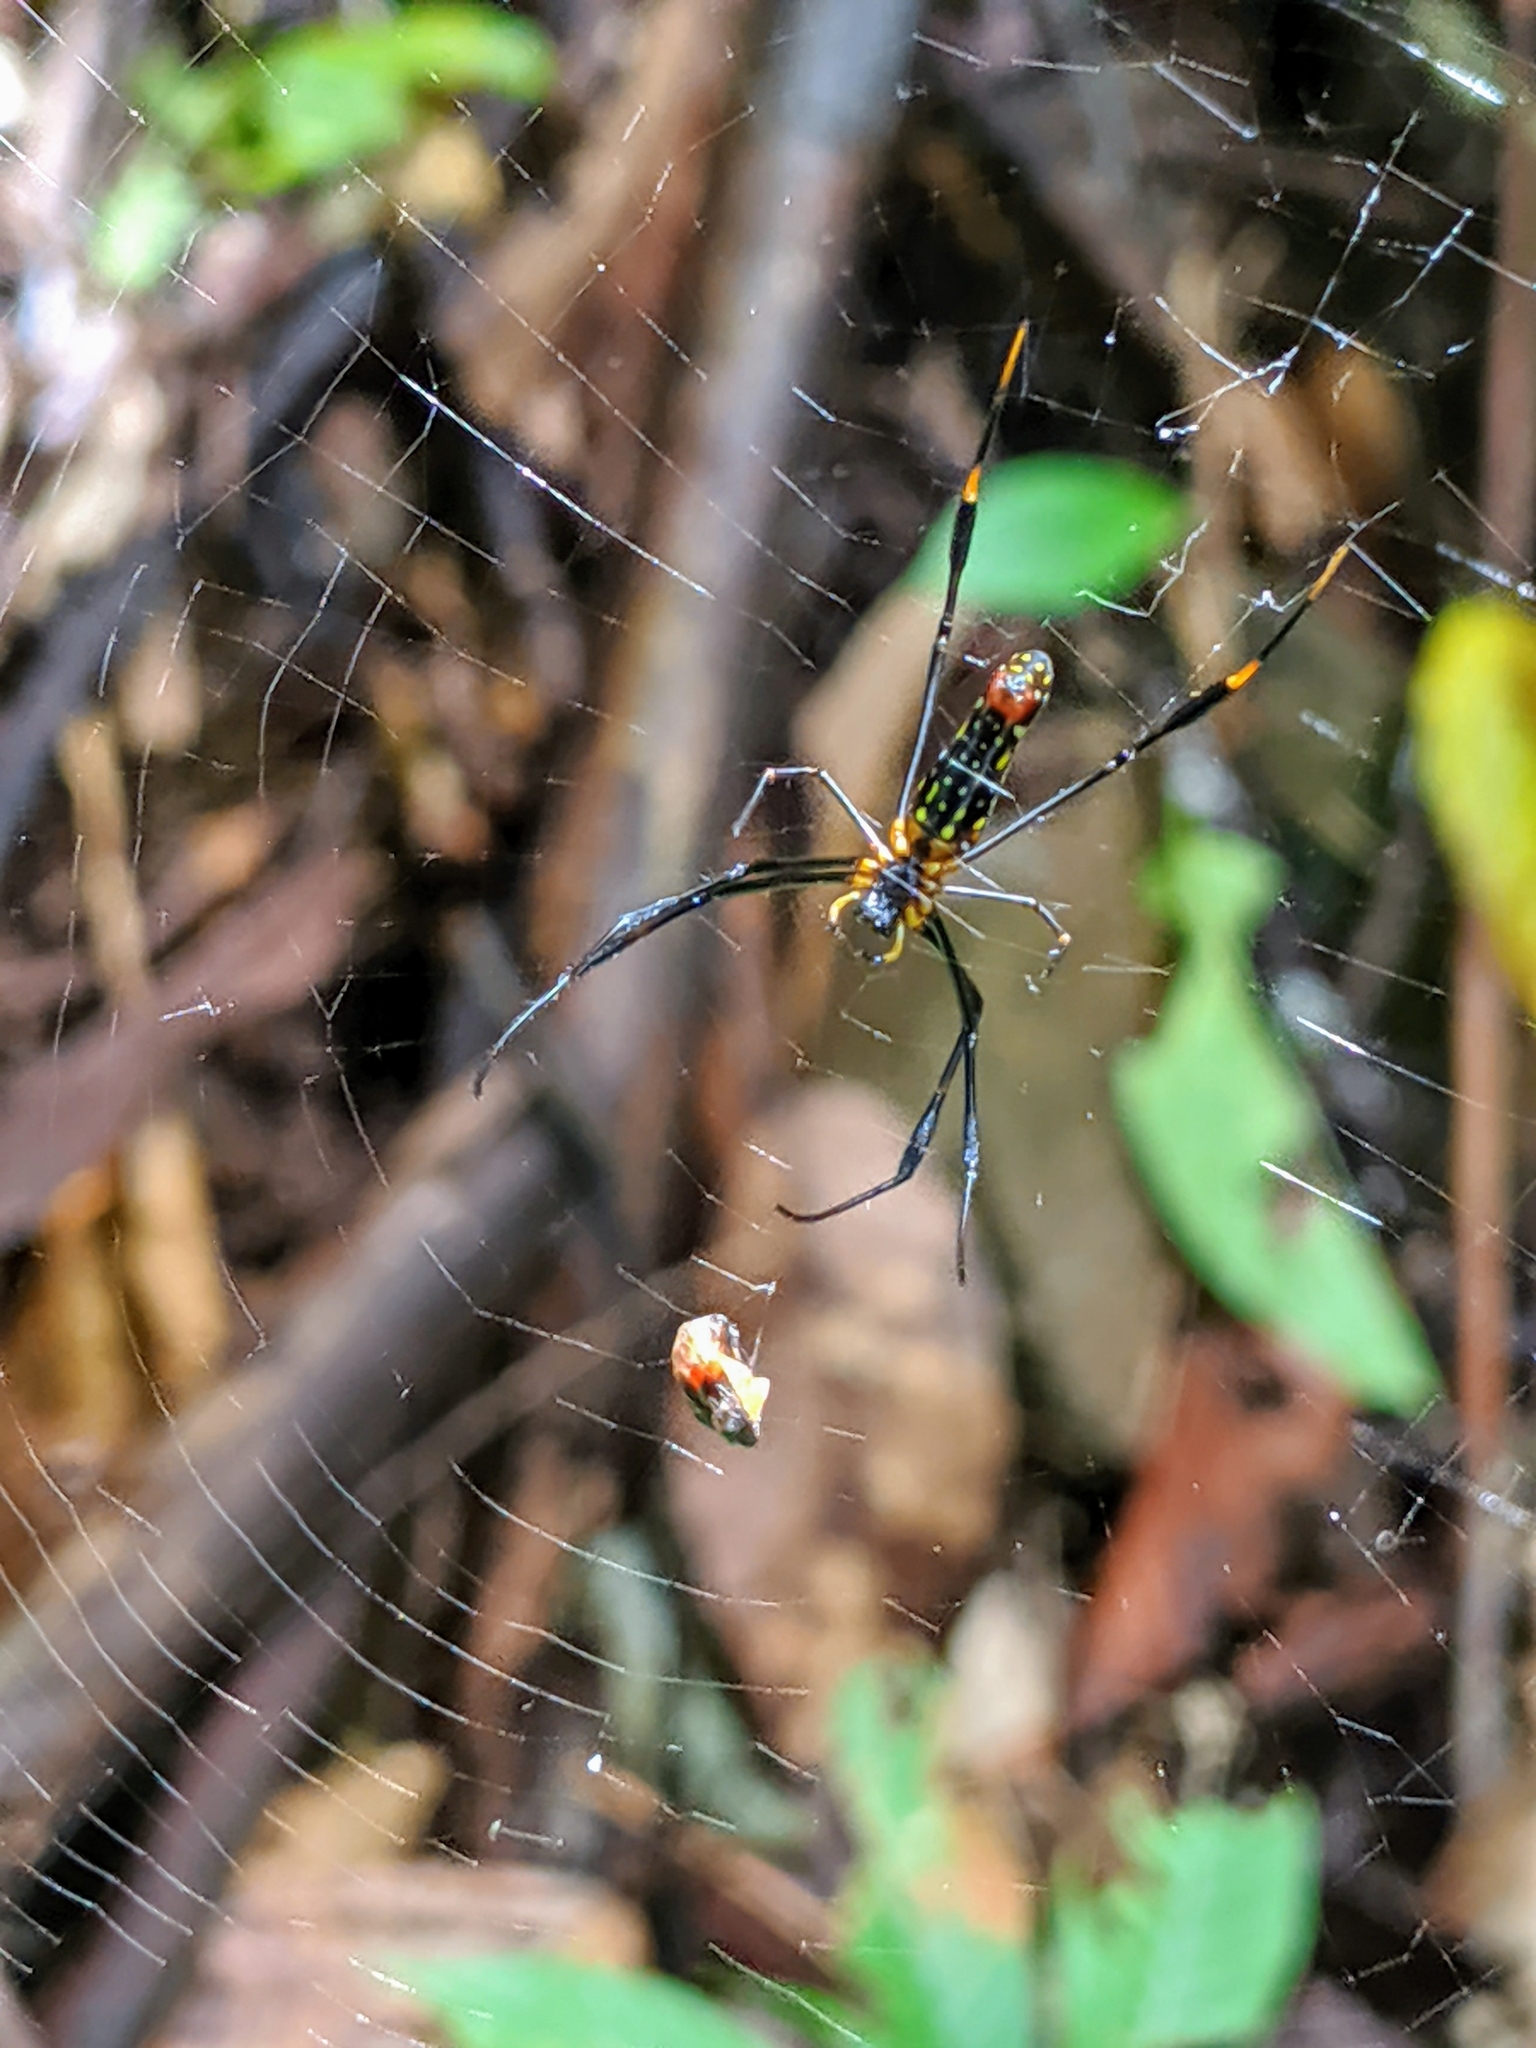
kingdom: Animalia
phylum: Arthropoda
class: Arachnida
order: Araneae
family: Araneidae
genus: Nephila
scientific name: Nephila pilipes
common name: Giant golden orb weaver
